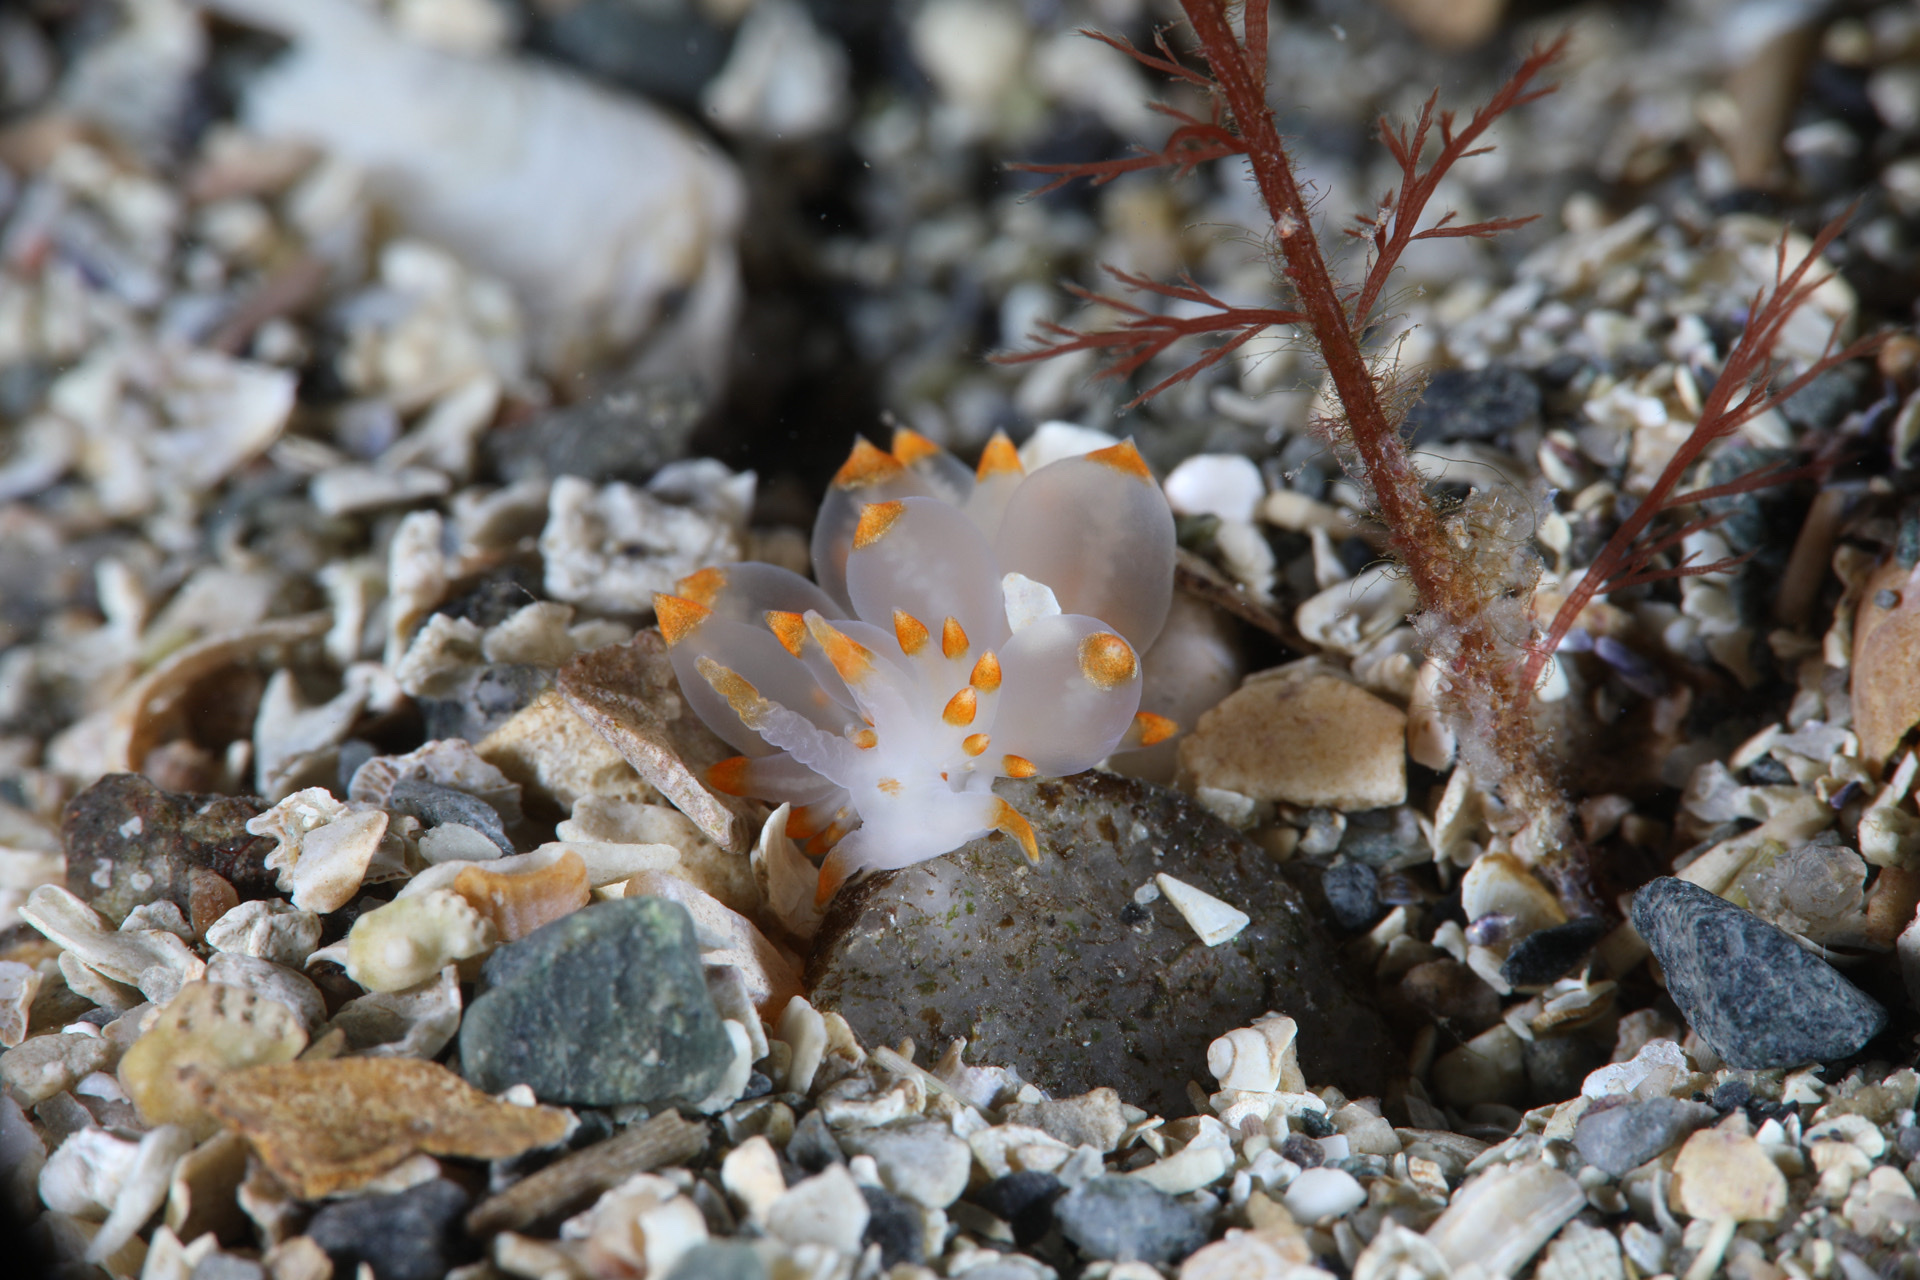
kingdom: Animalia
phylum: Mollusca
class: Gastropoda
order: Nudibranchia
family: Eubranchidae
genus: Amphorina
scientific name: Amphorina farrani
